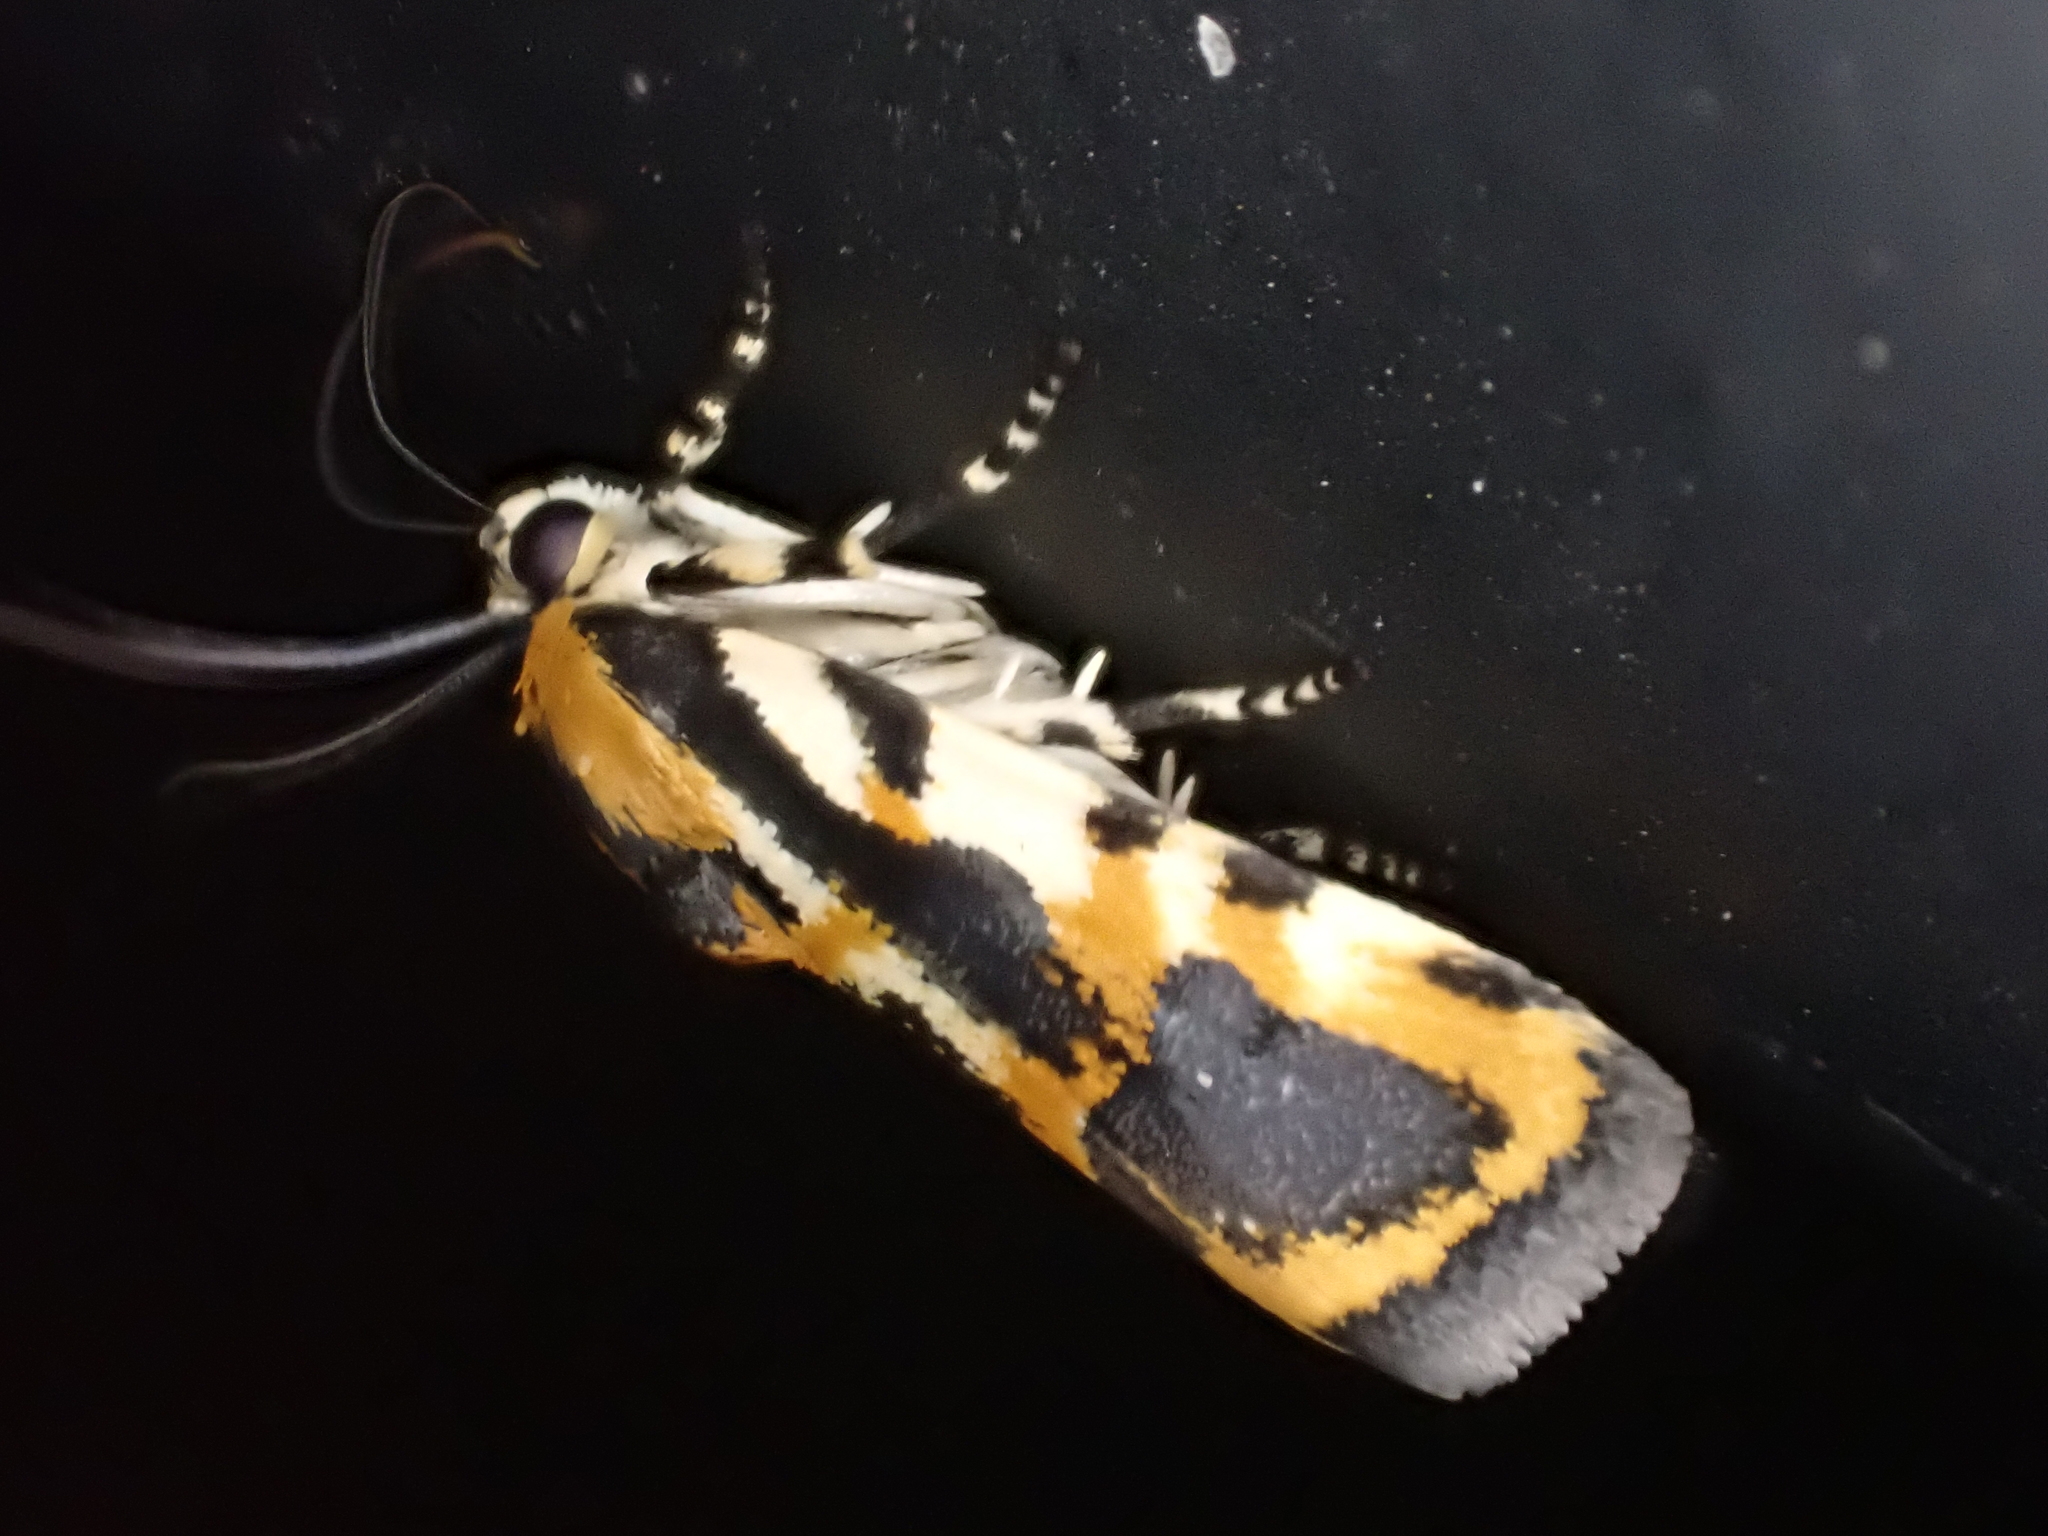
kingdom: Animalia
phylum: Arthropoda
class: Insecta
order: Lepidoptera
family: Noctuidae
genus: Acontia
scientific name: Acontia leo
